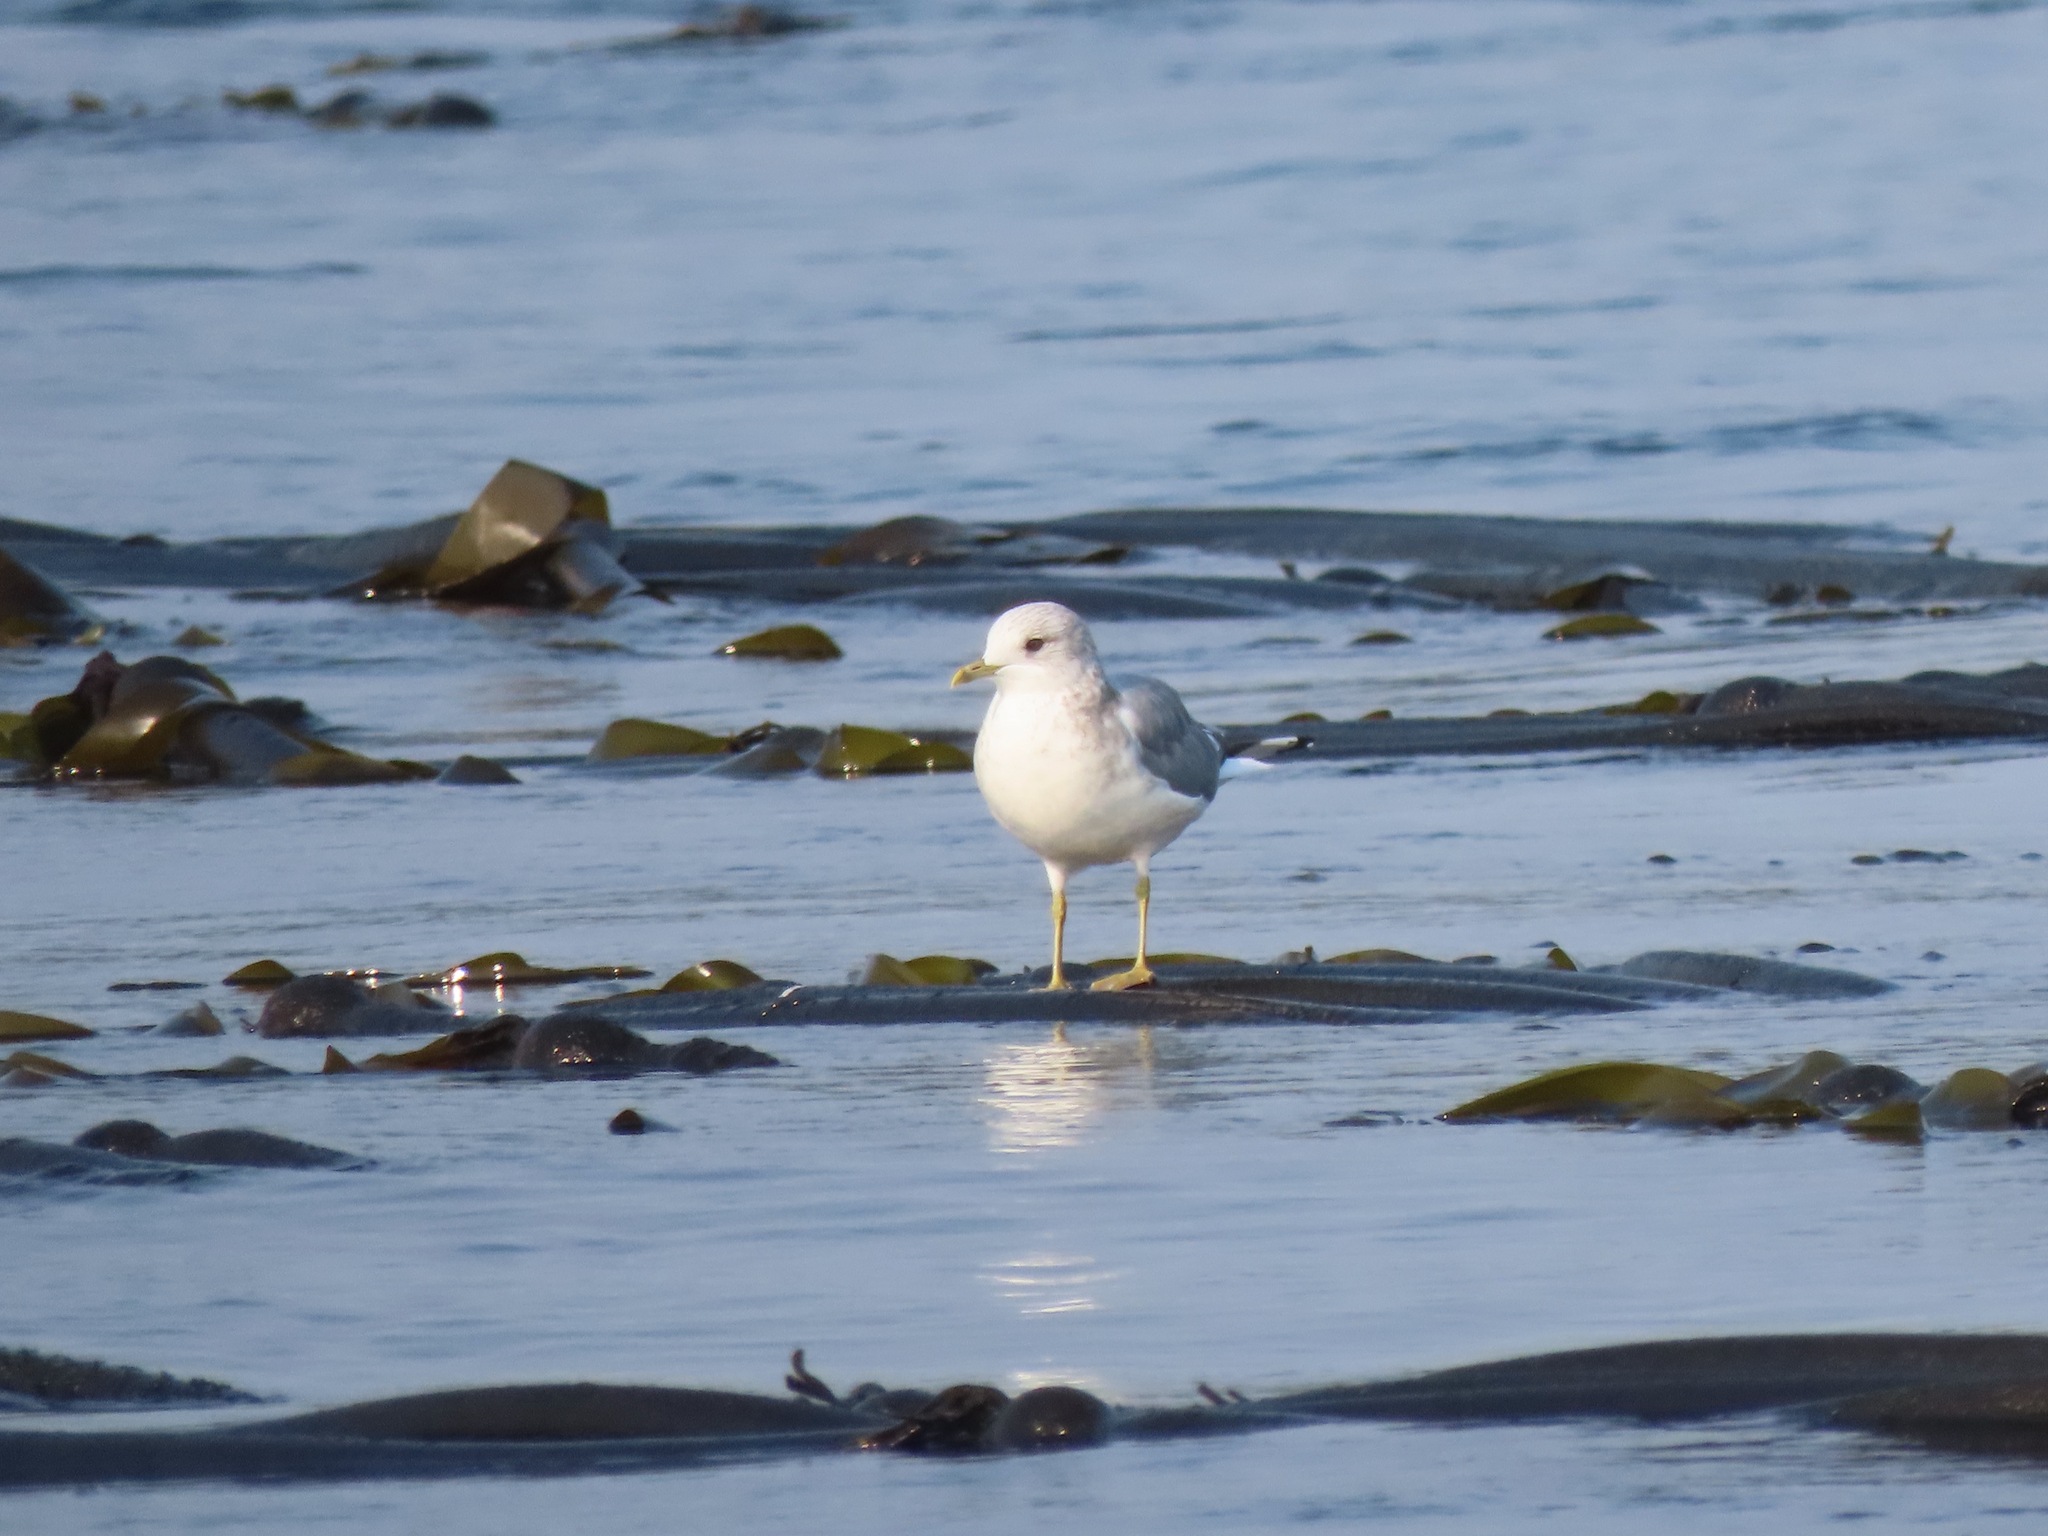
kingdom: Animalia
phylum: Chordata
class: Aves
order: Charadriiformes
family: Laridae
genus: Larus
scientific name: Larus brachyrhynchus
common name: Short-billed gull
